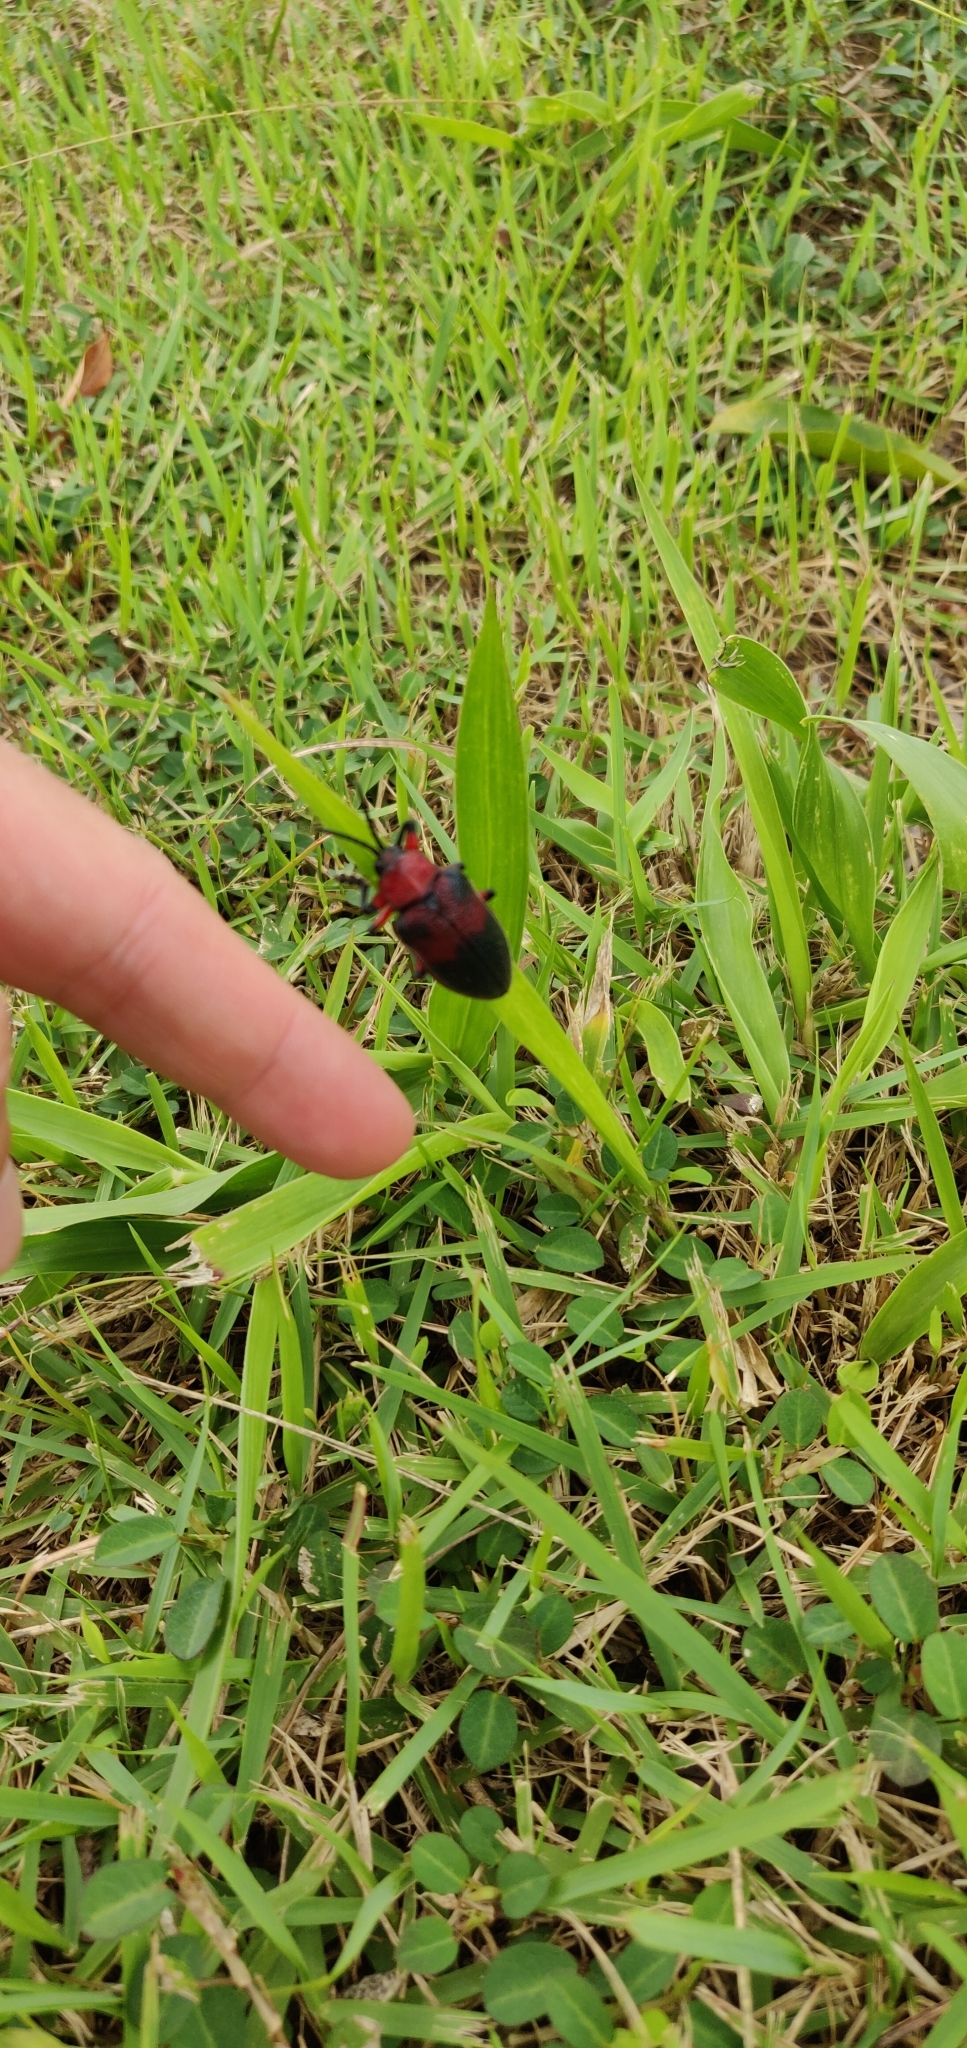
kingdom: Animalia
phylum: Arthropoda
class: Insecta
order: Coleoptera
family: Chrysomelidae
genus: Coraliomela
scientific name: Coraliomela brunnea
